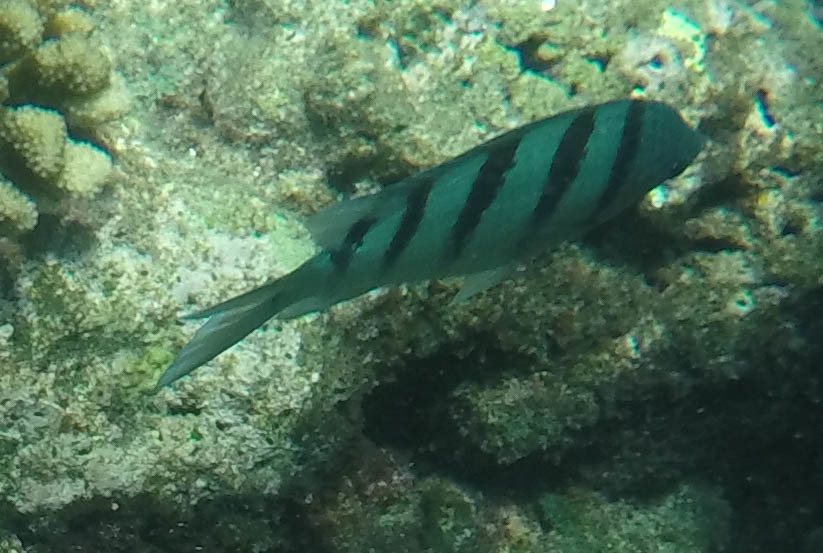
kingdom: Animalia
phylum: Chordata
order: Perciformes
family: Pomacentridae
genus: Abudefduf
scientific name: Abudefduf abdominalis
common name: Green damselfish
